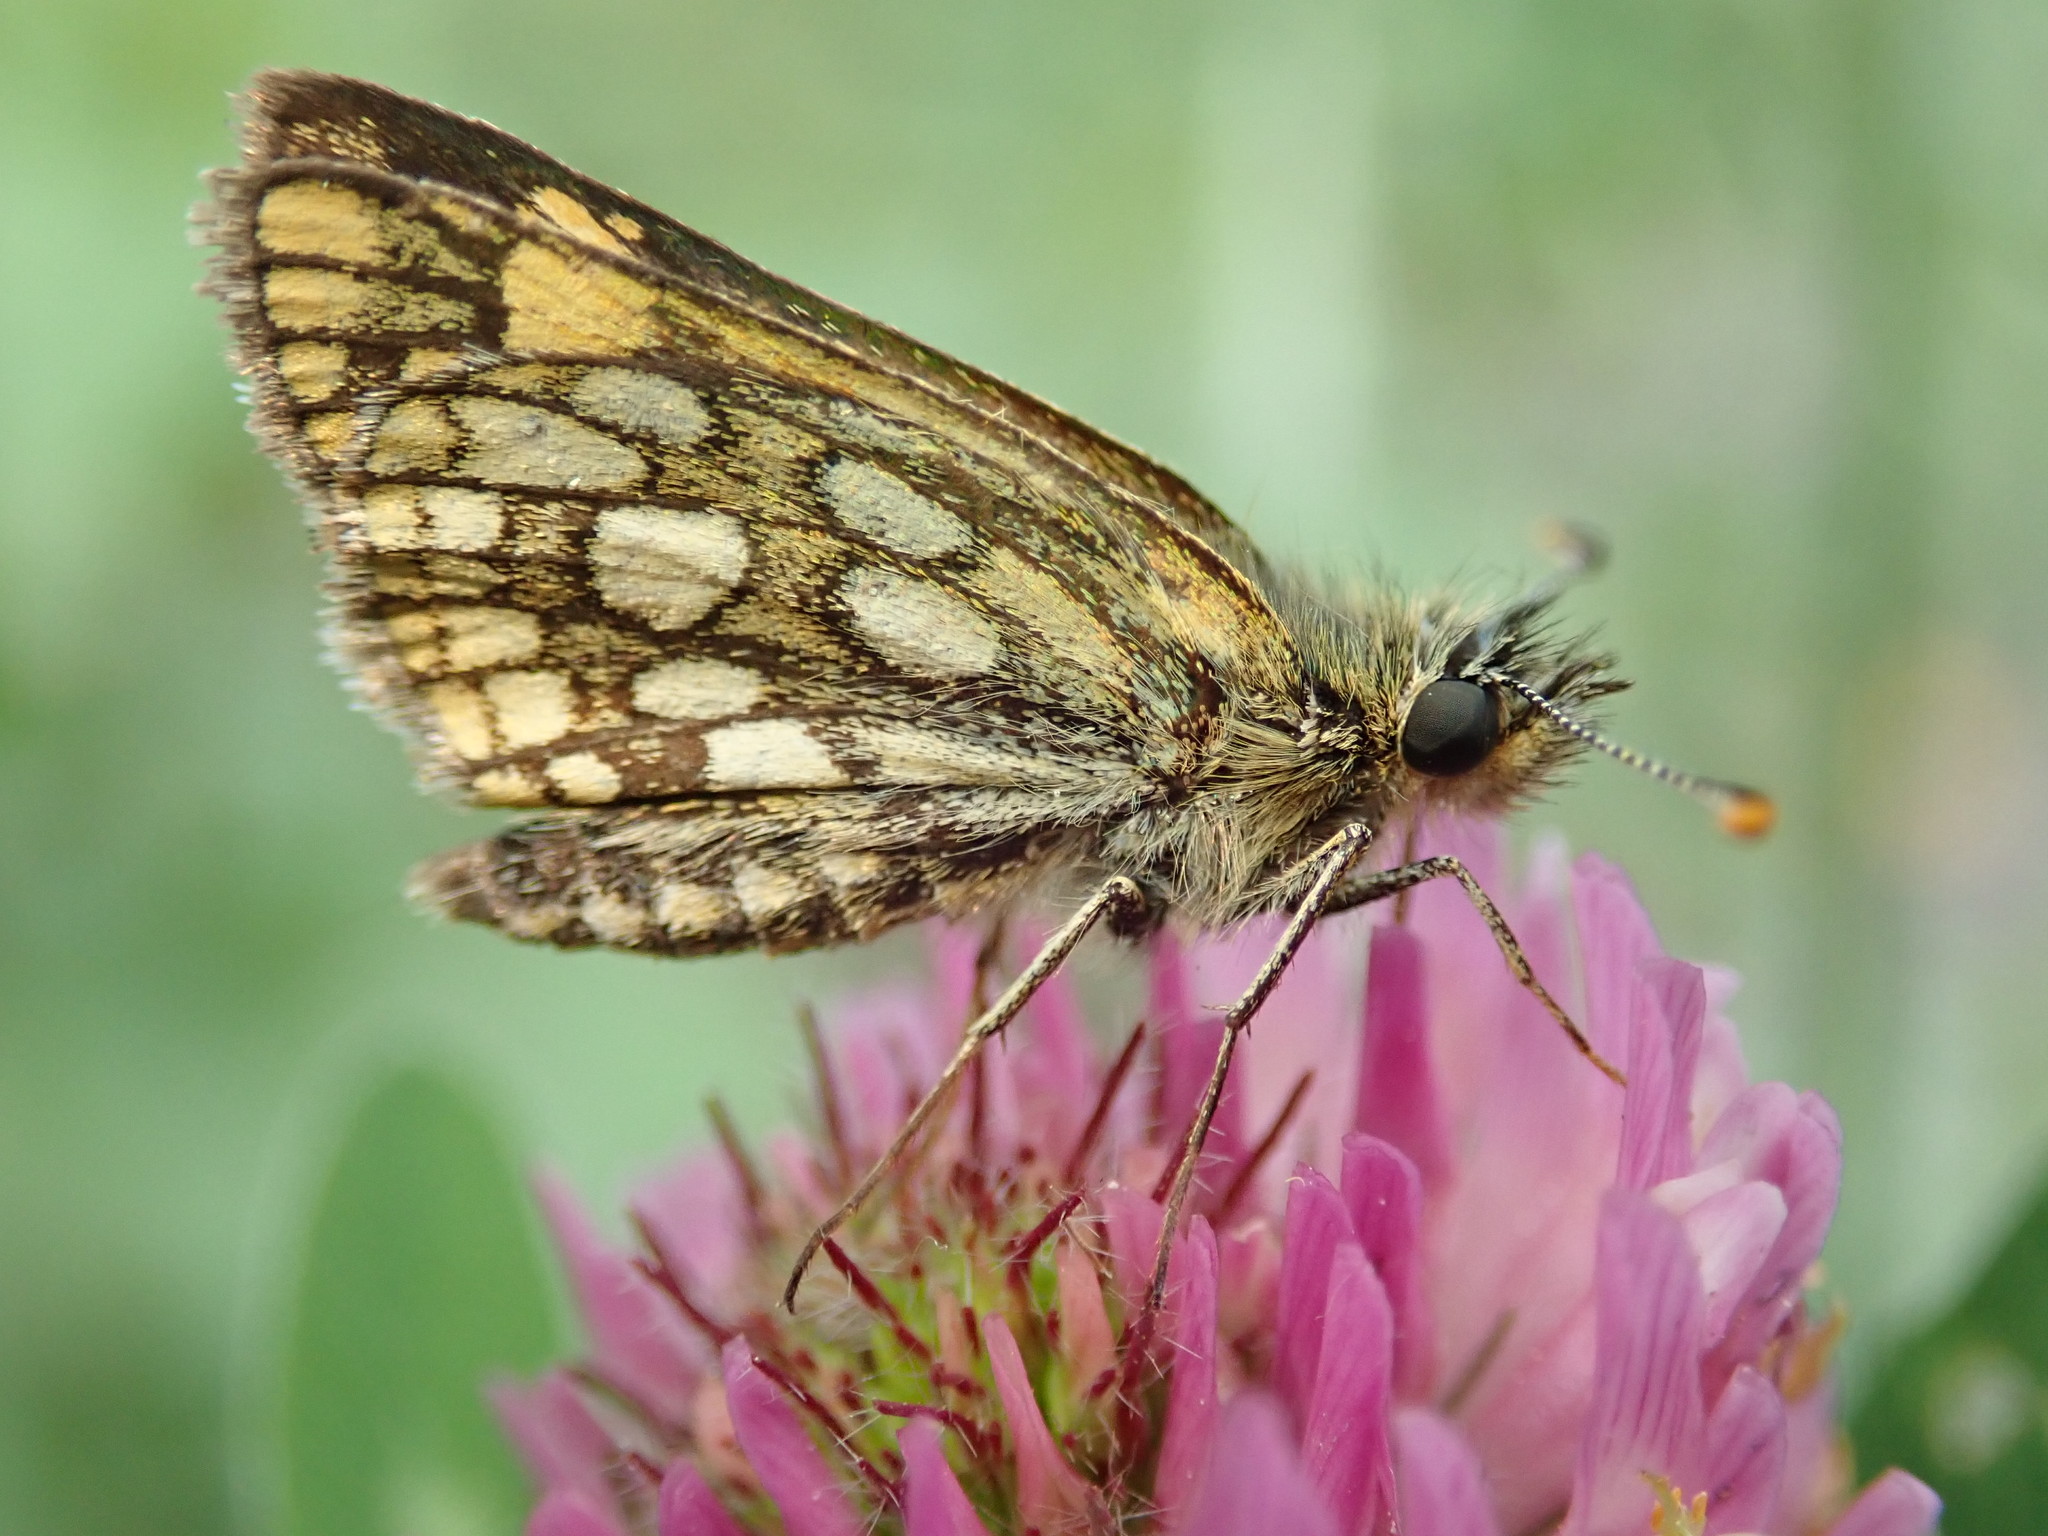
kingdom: Animalia
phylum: Arthropoda
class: Insecta
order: Lepidoptera
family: Hesperiidae
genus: Carterocephalus
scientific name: Carterocephalus palaemon
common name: Chequered skipper
